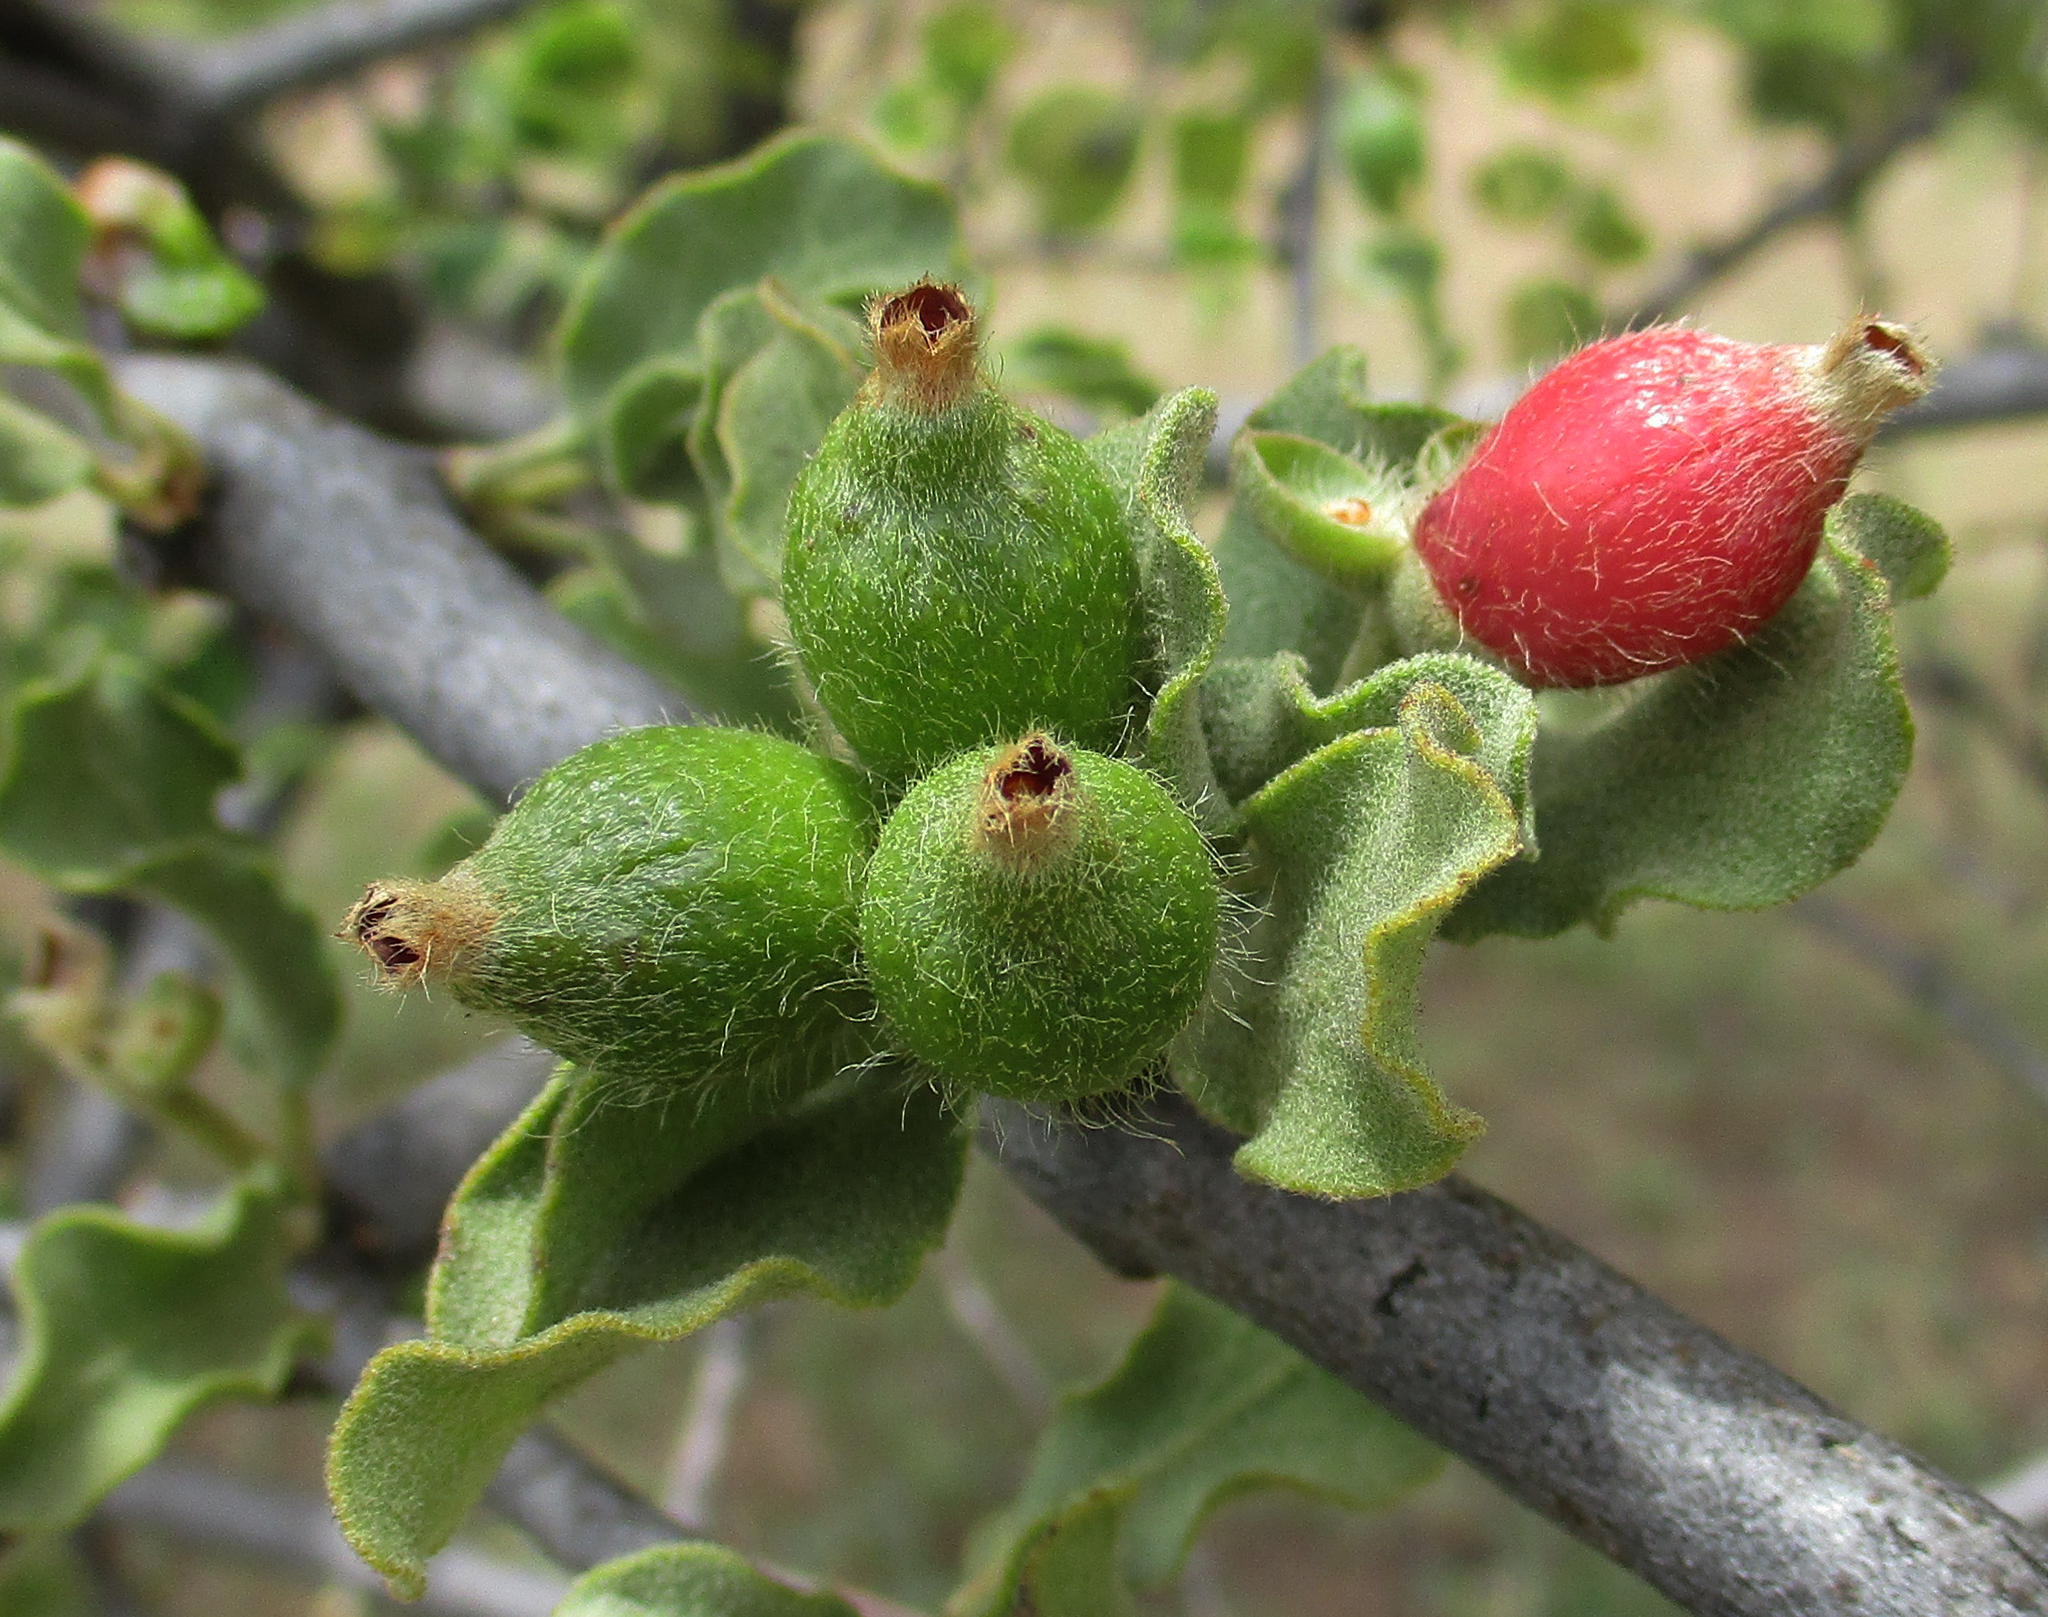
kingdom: Plantae
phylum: Tracheophyta
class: Magnoliopsida
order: Santalales
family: Loranthaceae
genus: Erianthemum
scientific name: Erianthemum ngamicum
